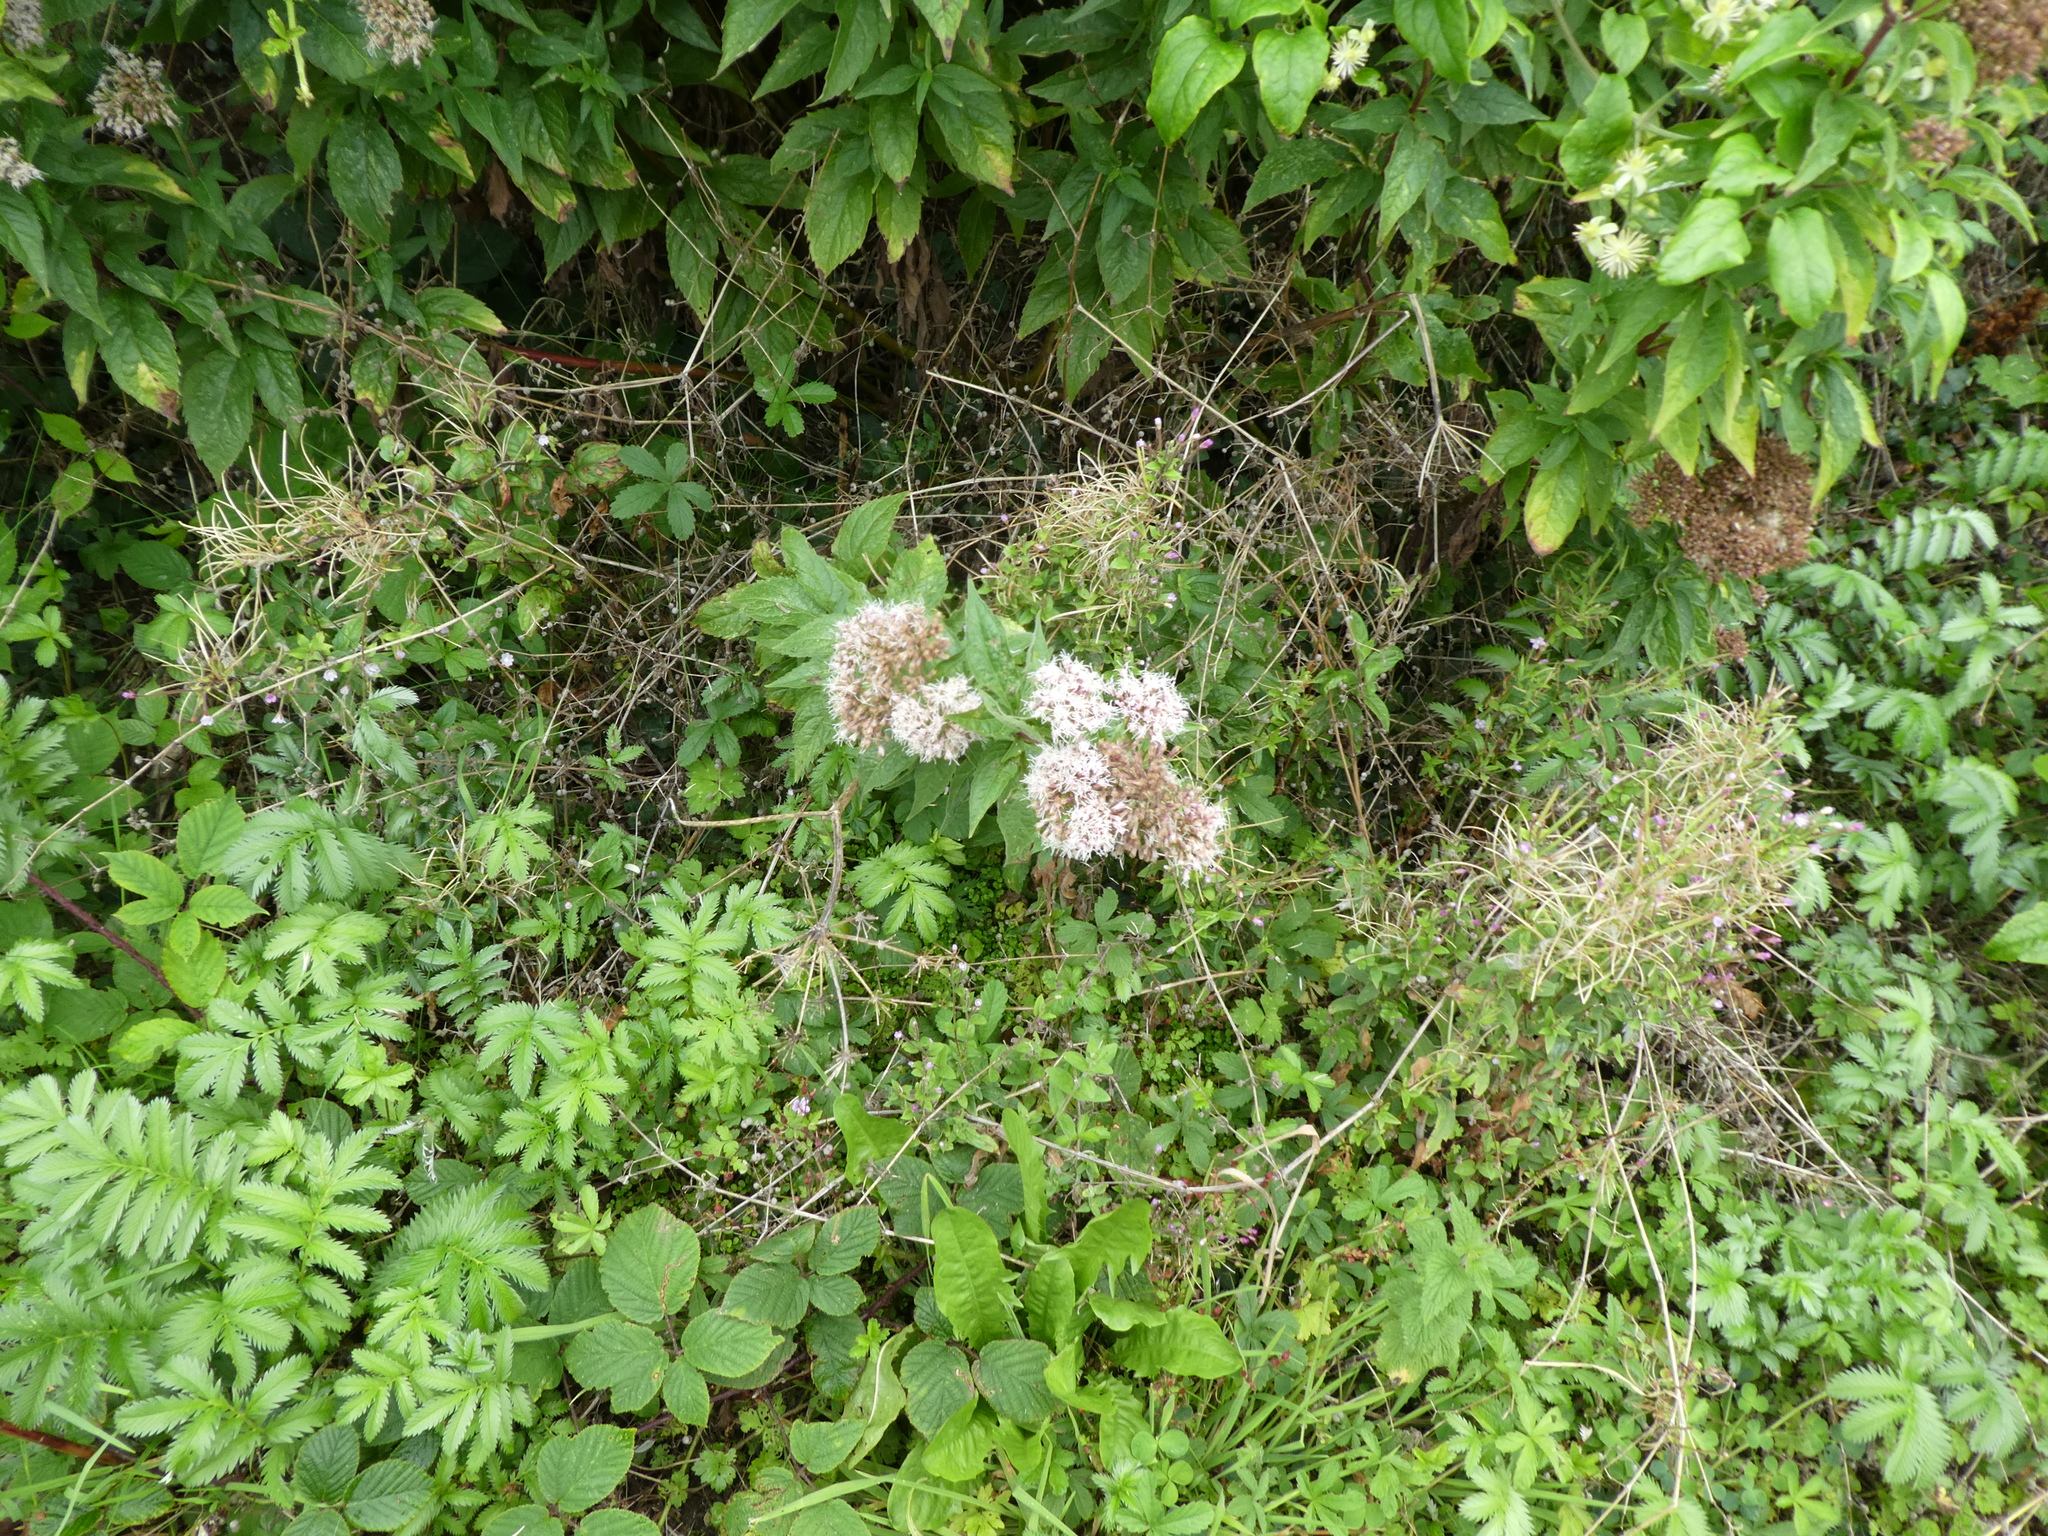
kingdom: Plantae
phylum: Tracheophyta
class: Magnoliopsida
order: Asterales
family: Asteraceae
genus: Eupatorium
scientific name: Eupatorium cannabinum
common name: Hemp-agrimony
